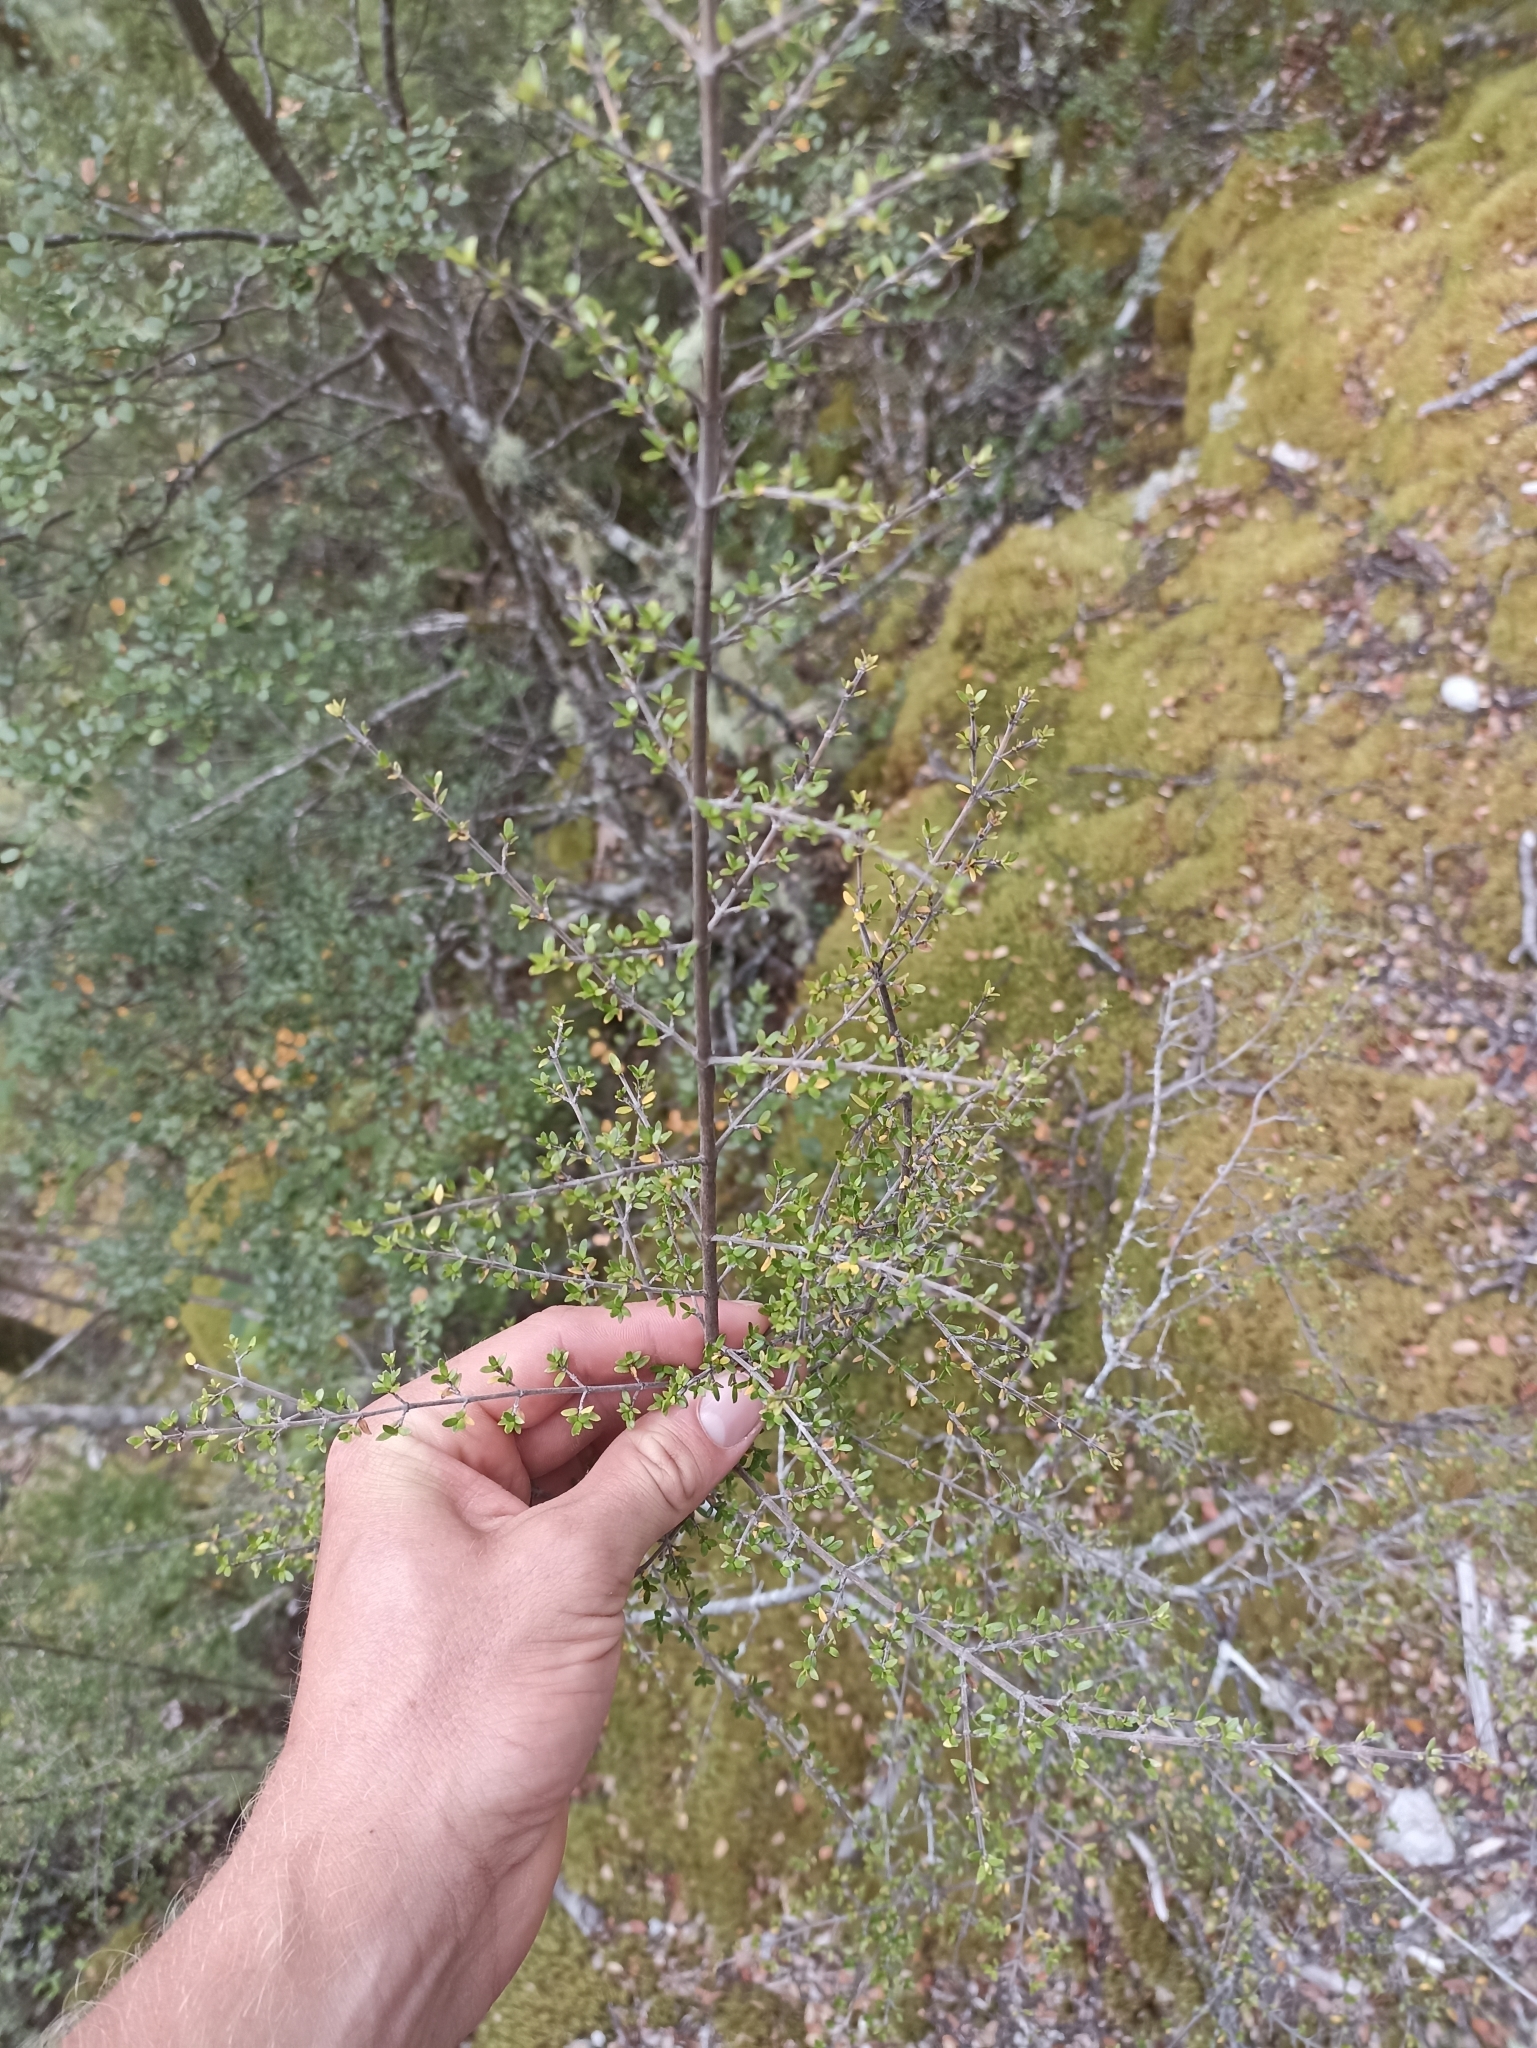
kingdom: Plantae
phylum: Tracheophyta
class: Magnoliopsida
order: Gentianales
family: Rubiaceae
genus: Coprosma
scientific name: Coprosma dumosa
